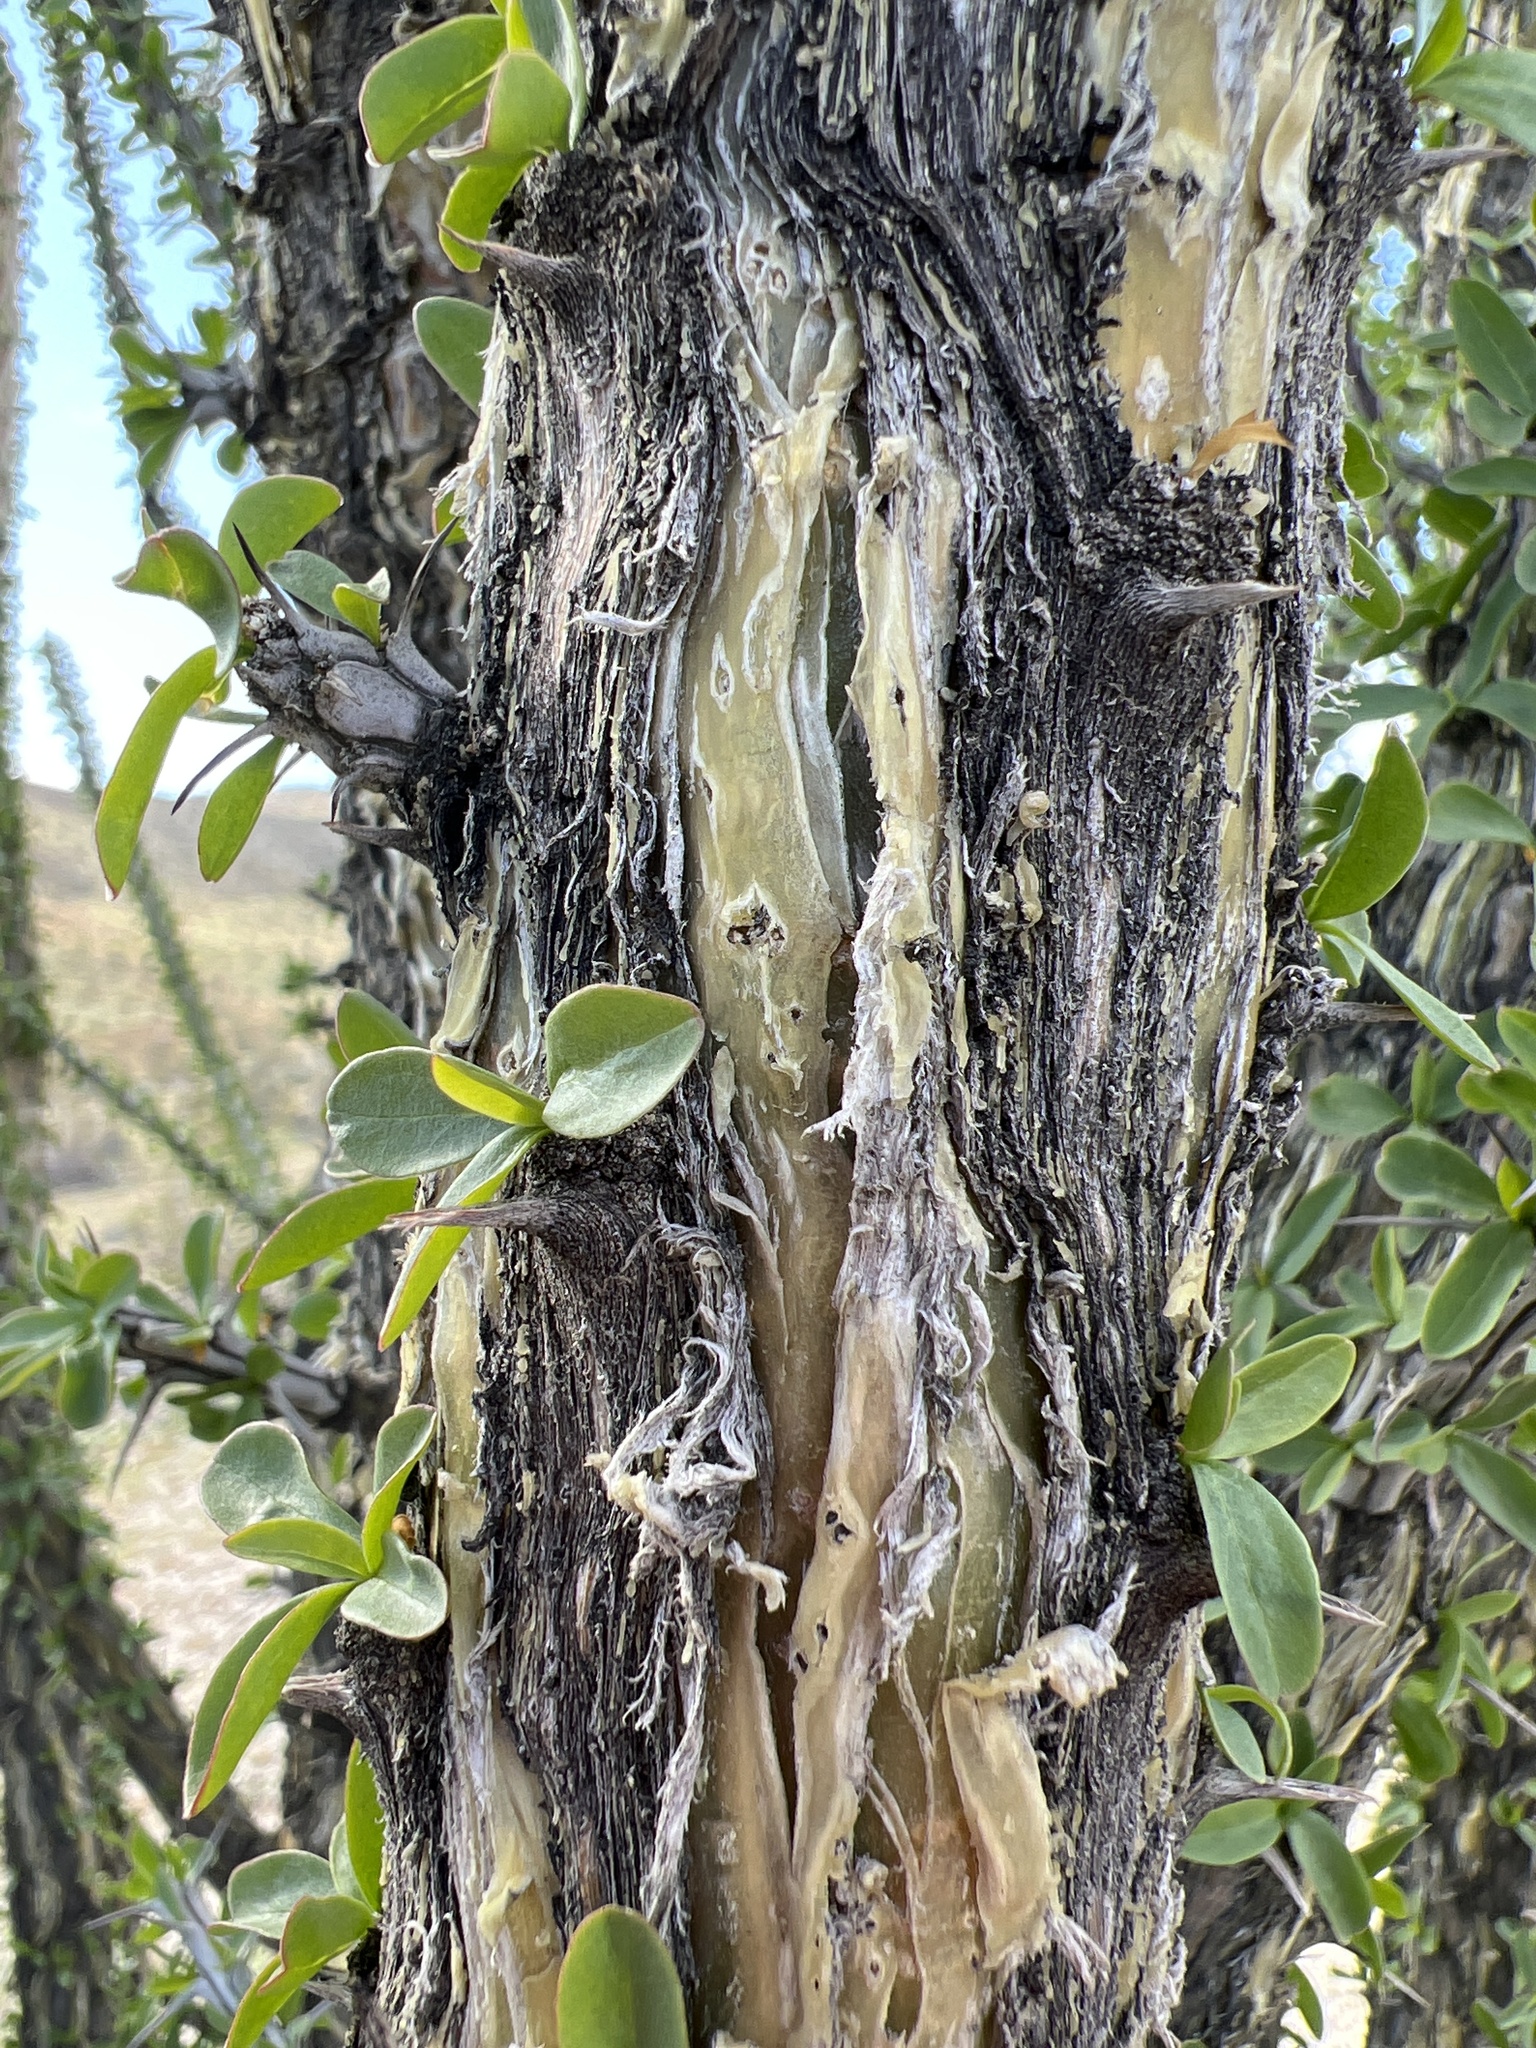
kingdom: Plantae
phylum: Tracheophyta
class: Magnoliopsida
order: Ericales
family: Fouquieriaceae
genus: Fouquieria
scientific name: Fouquieria splendens
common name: Vine-cactus
